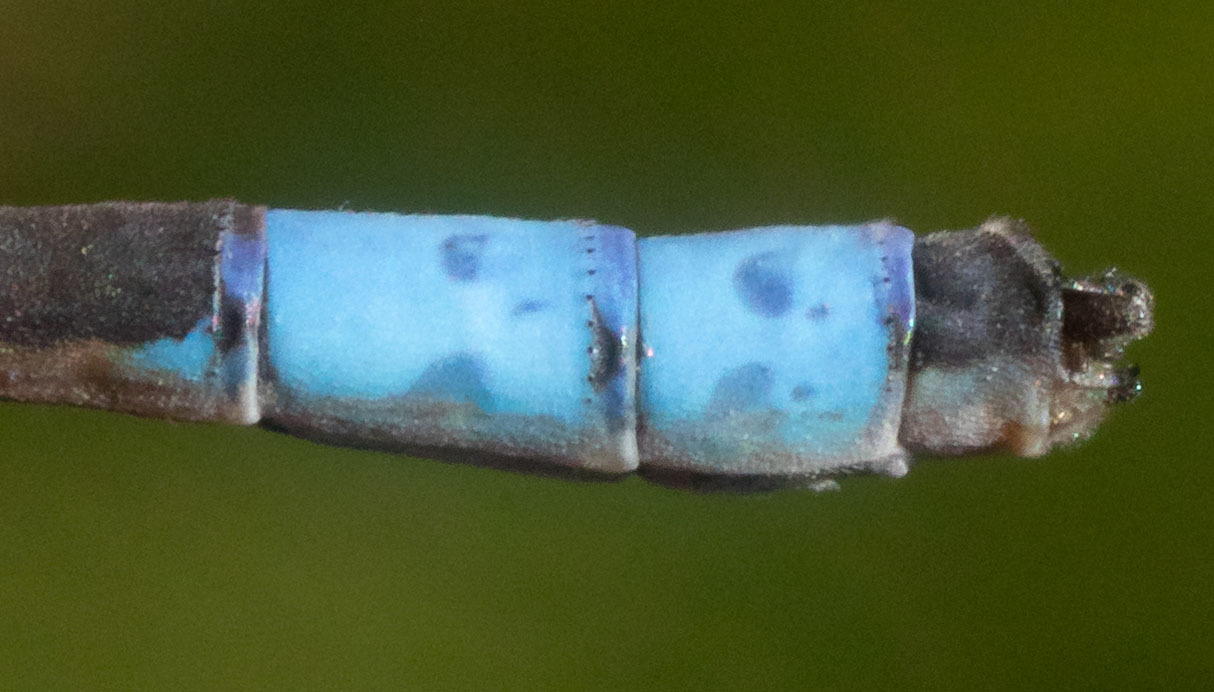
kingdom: Animalia
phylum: Arthropoda
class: Insecta
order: Odonata
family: Coenagrionidae
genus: Enallagma
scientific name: Enallagma praevarum
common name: Arroyo bluet
